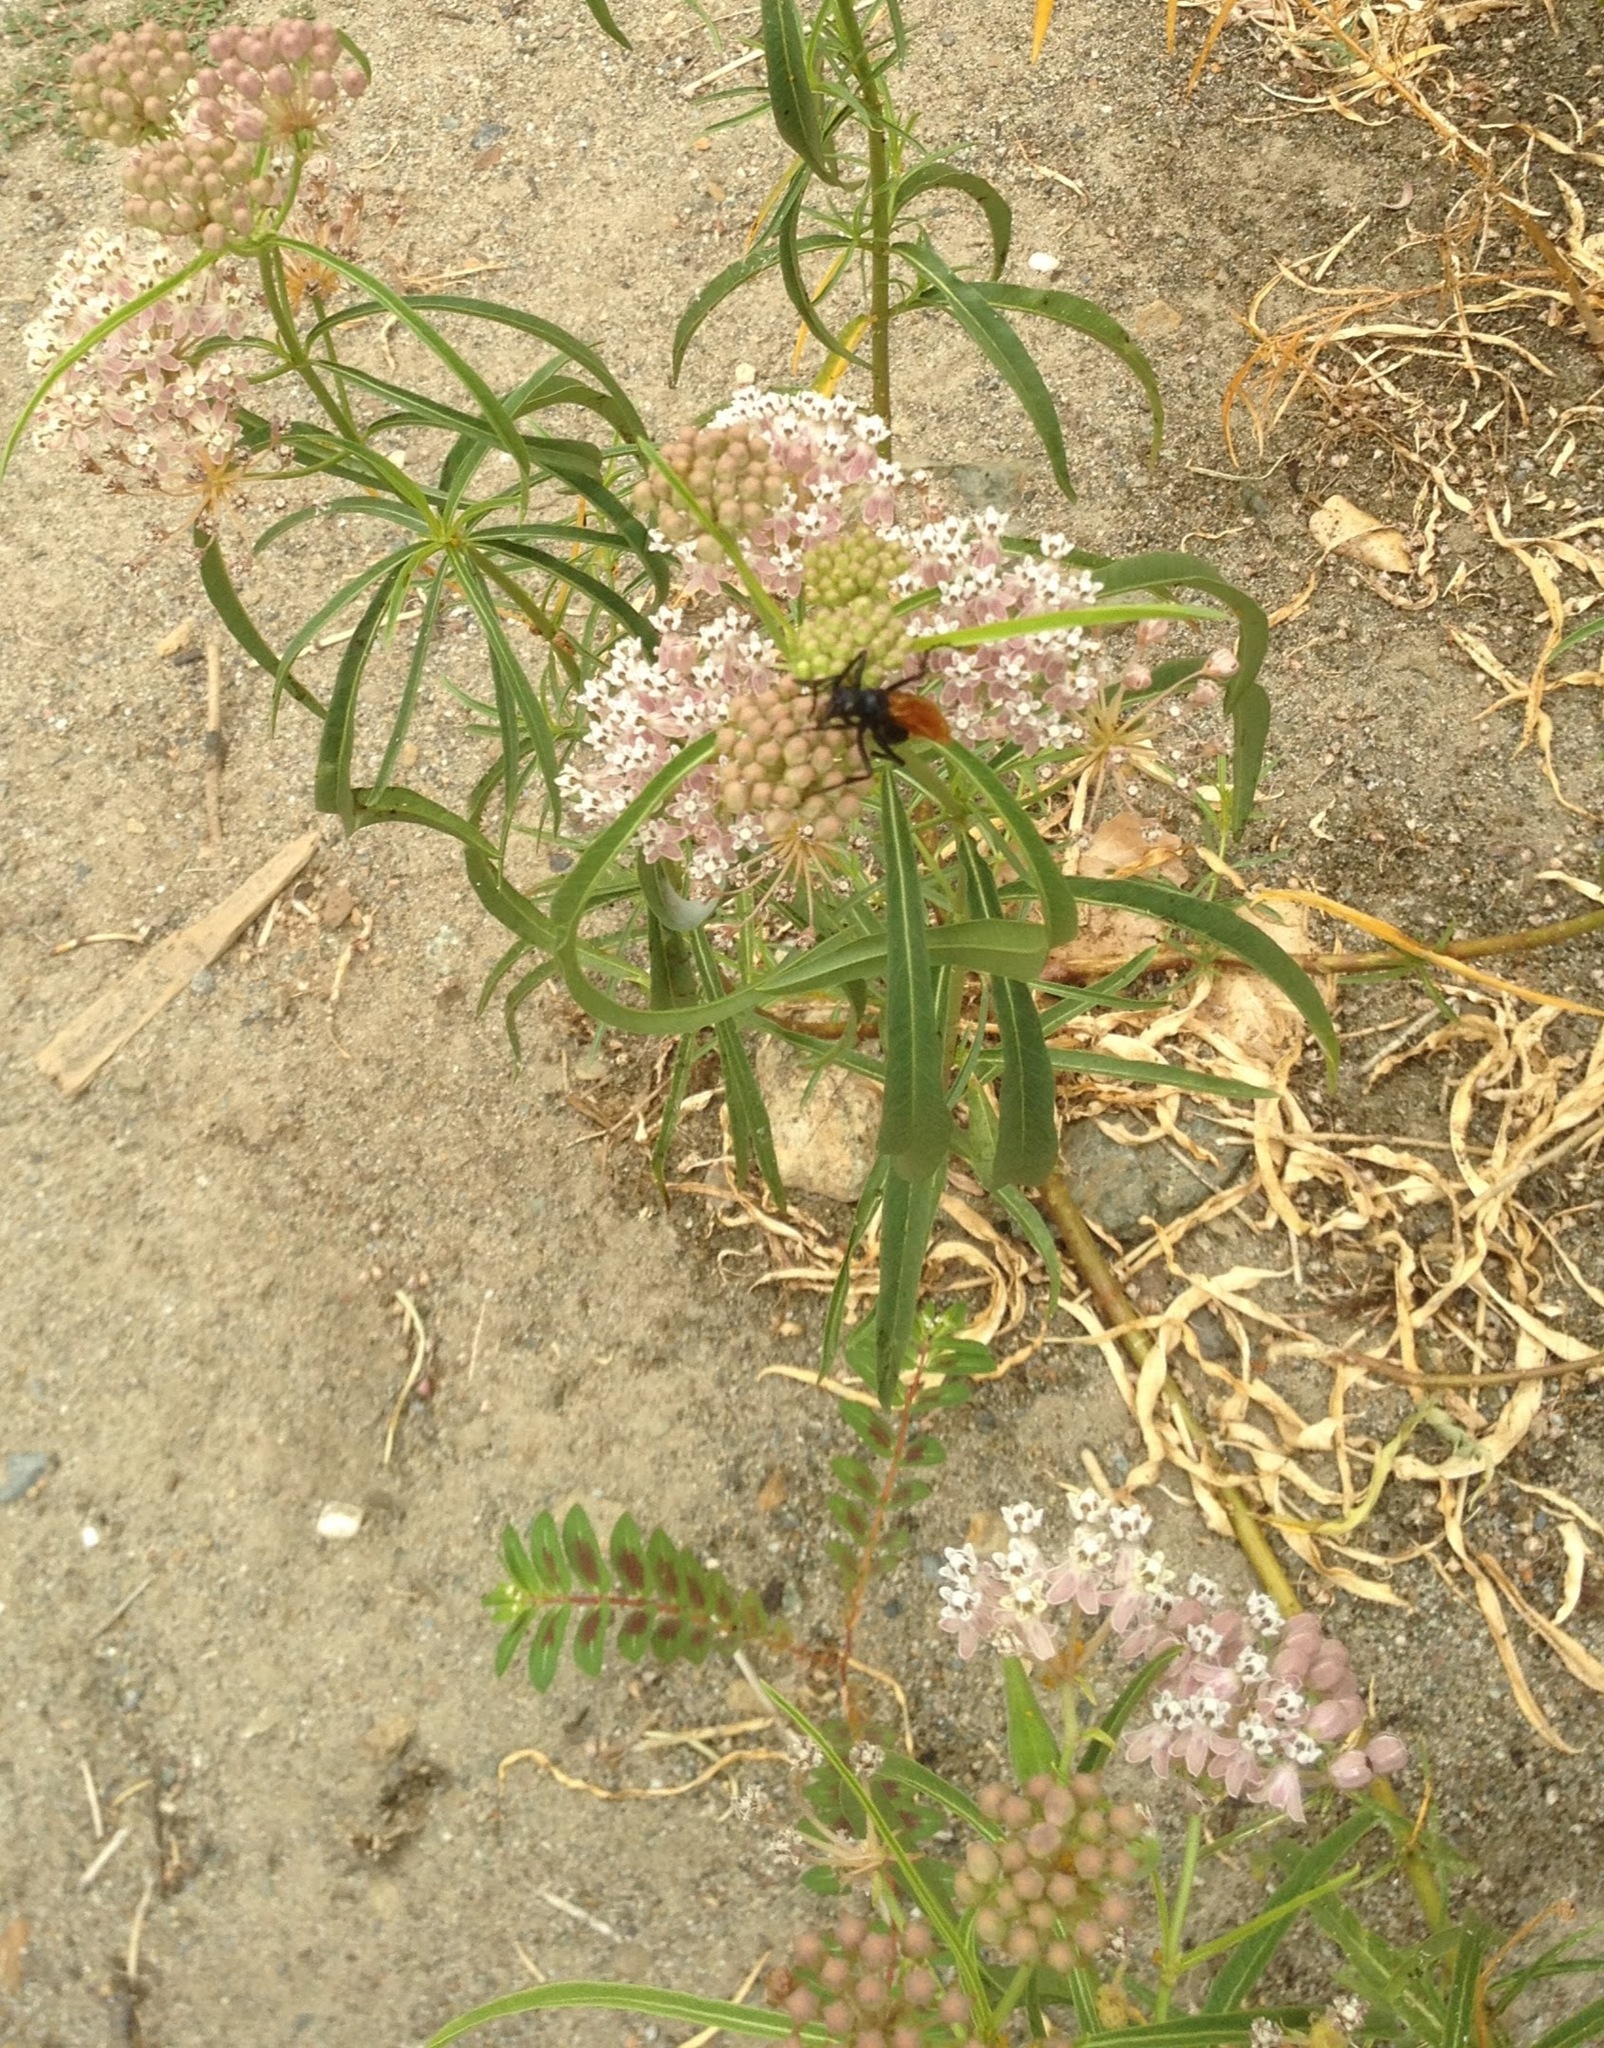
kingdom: Plantae
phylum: Tracheophyta
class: Magnoliopsida
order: Gentianales
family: Apocynaceae
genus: Asclepias
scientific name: Asclepias fascicularis
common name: Mexican milkweed
